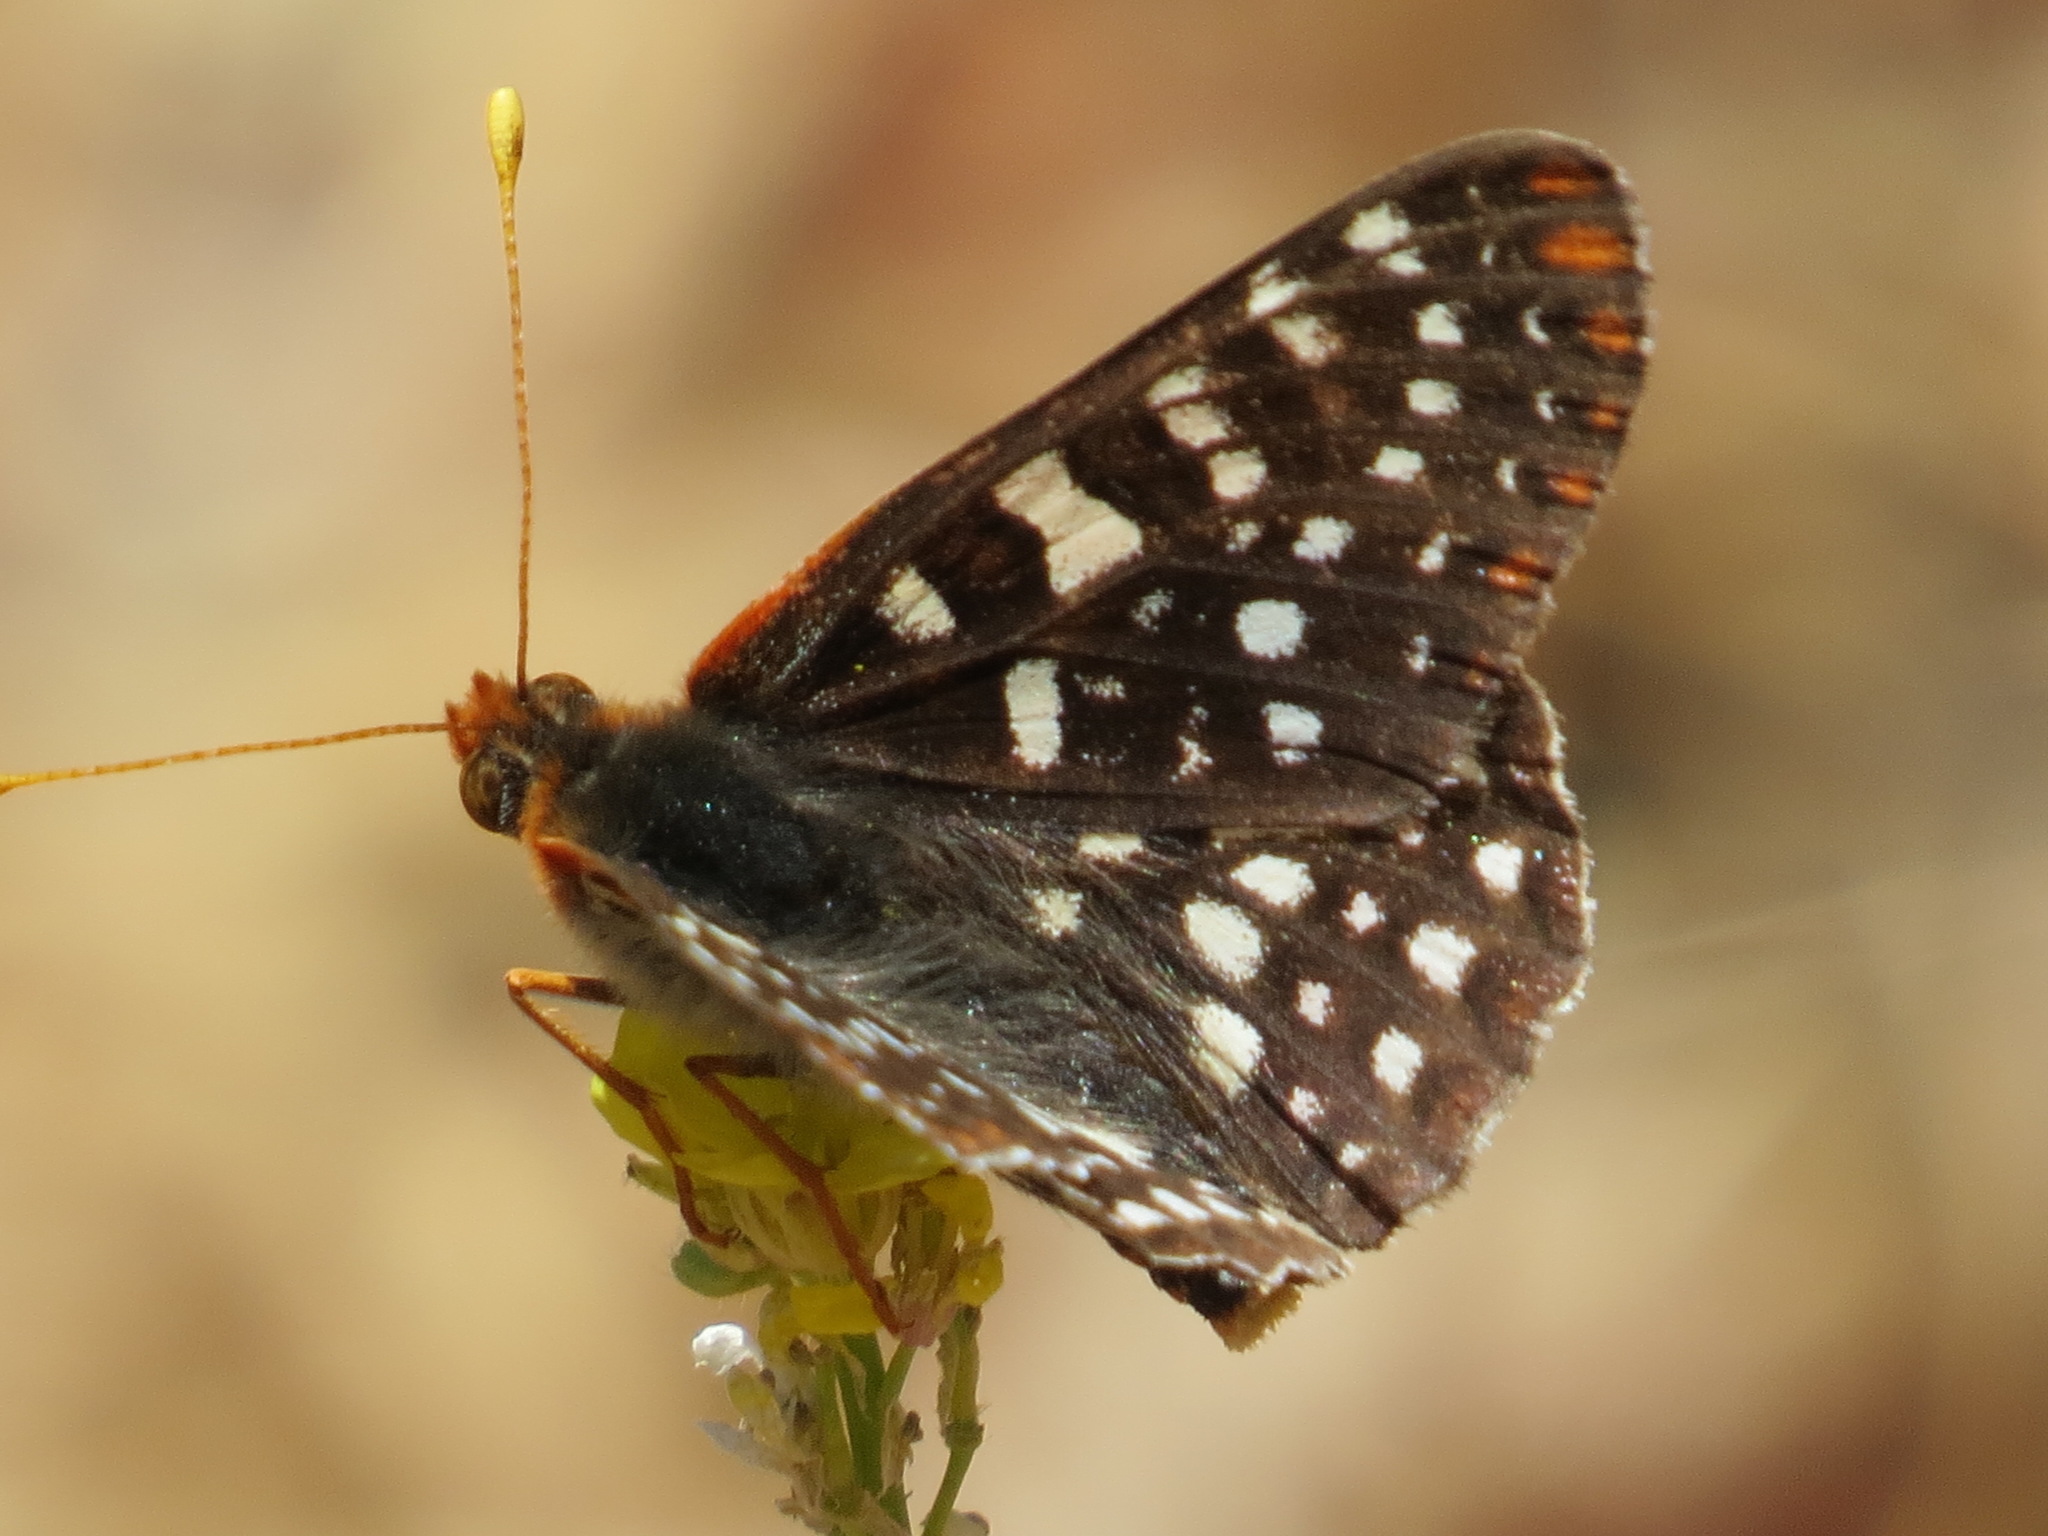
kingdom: Animalia
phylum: Arthropoda
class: Insecta
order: Lepidoptera
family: Nymphalidae
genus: Occidryas
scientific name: Occidryas chalcedona
